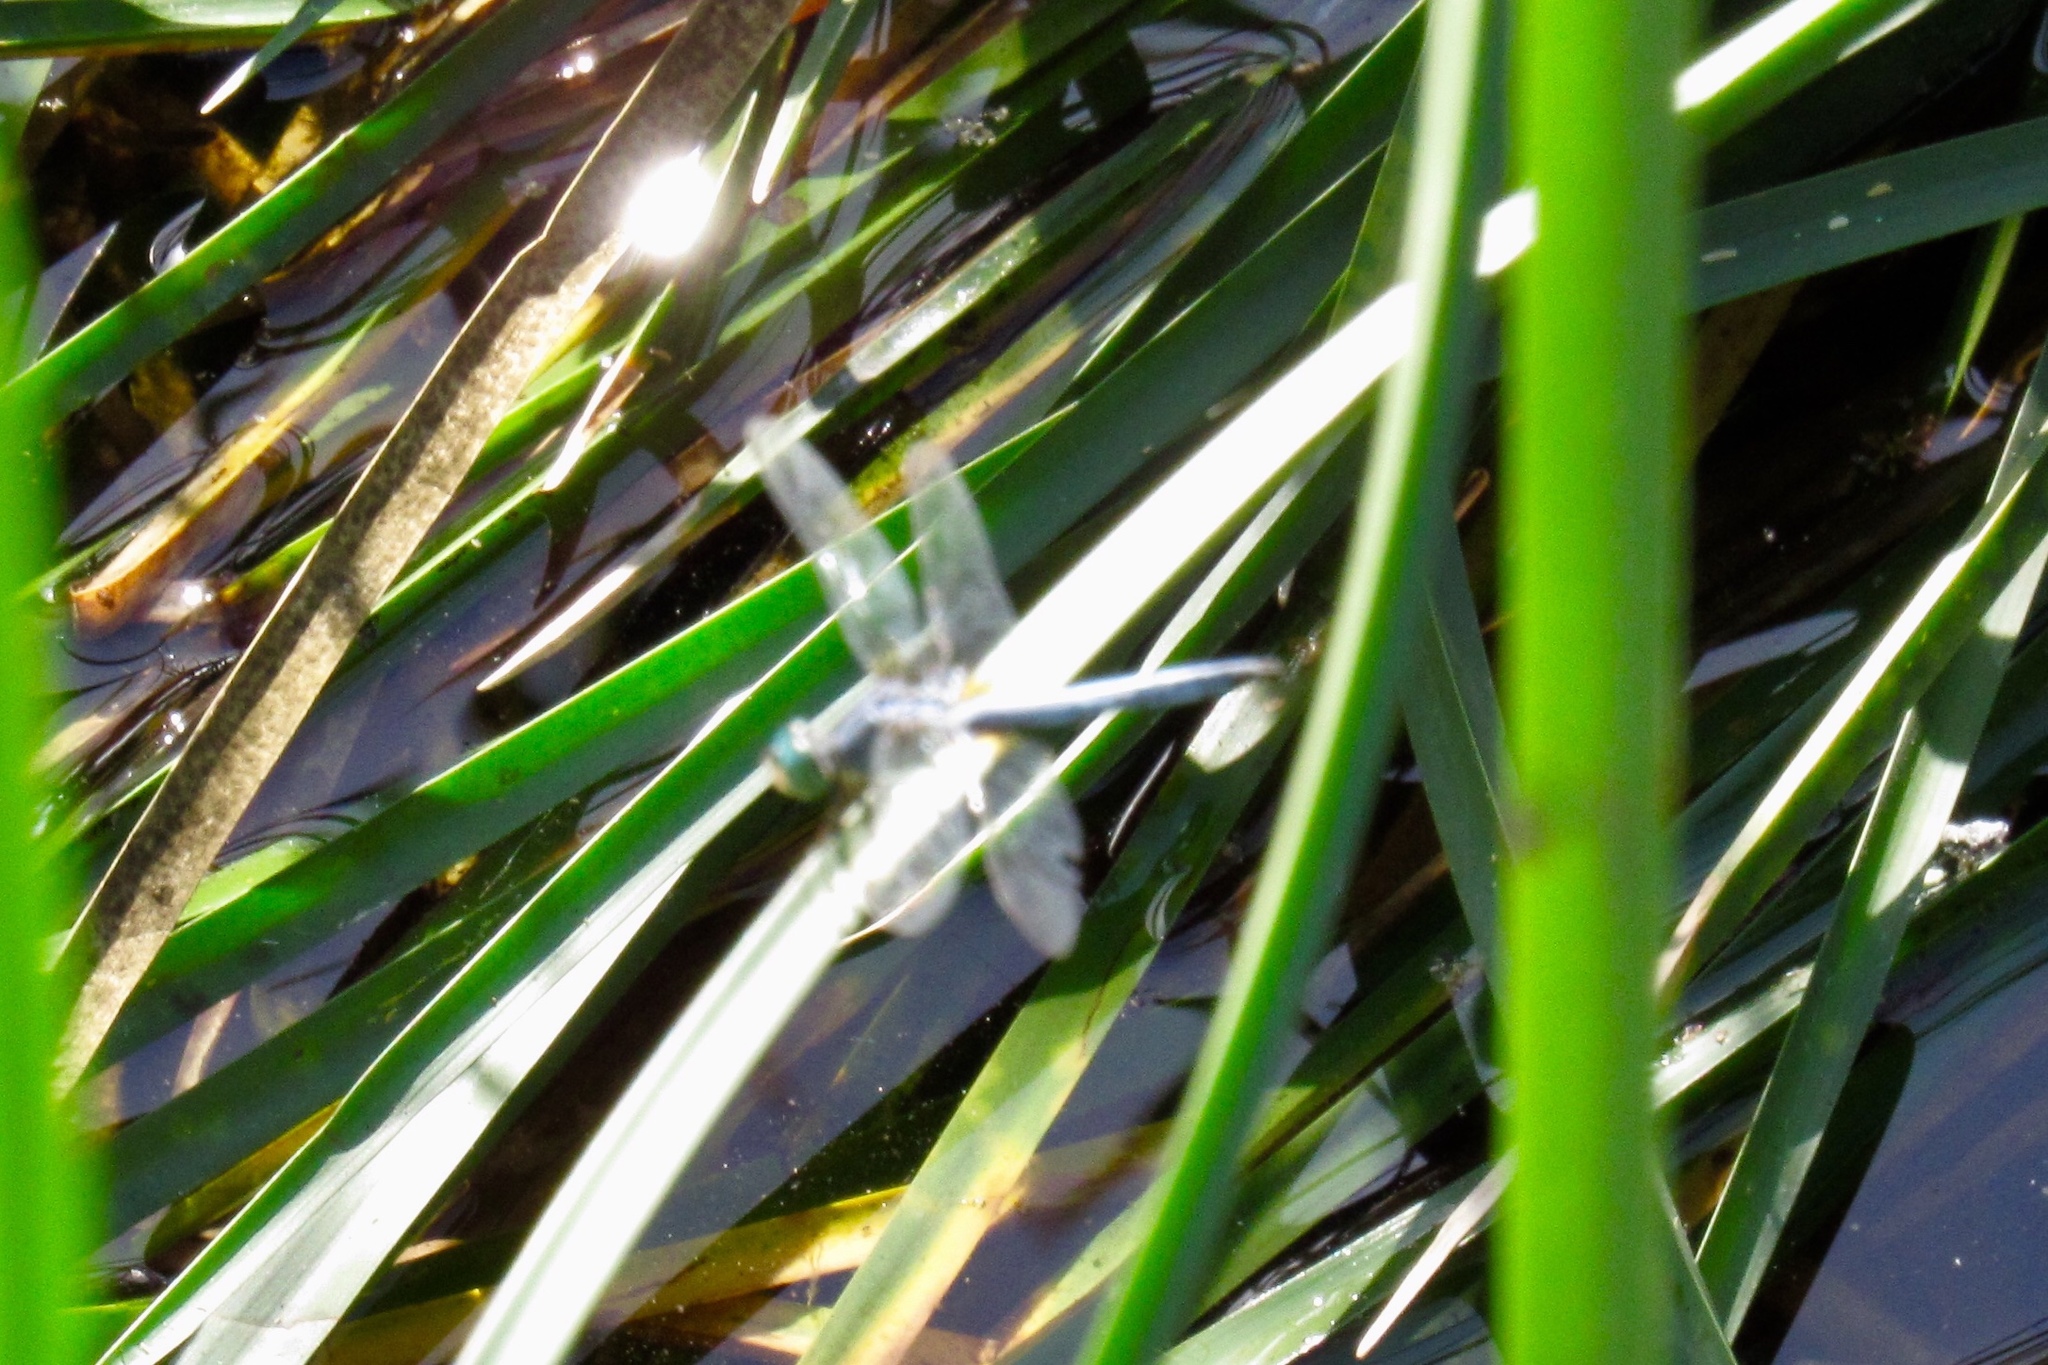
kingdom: Animalia
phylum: Arthropoda
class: Insecta
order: Odonata
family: Libellulidae
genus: Pachydiplax
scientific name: Pachydiplax longipennis
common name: Blue dasher
